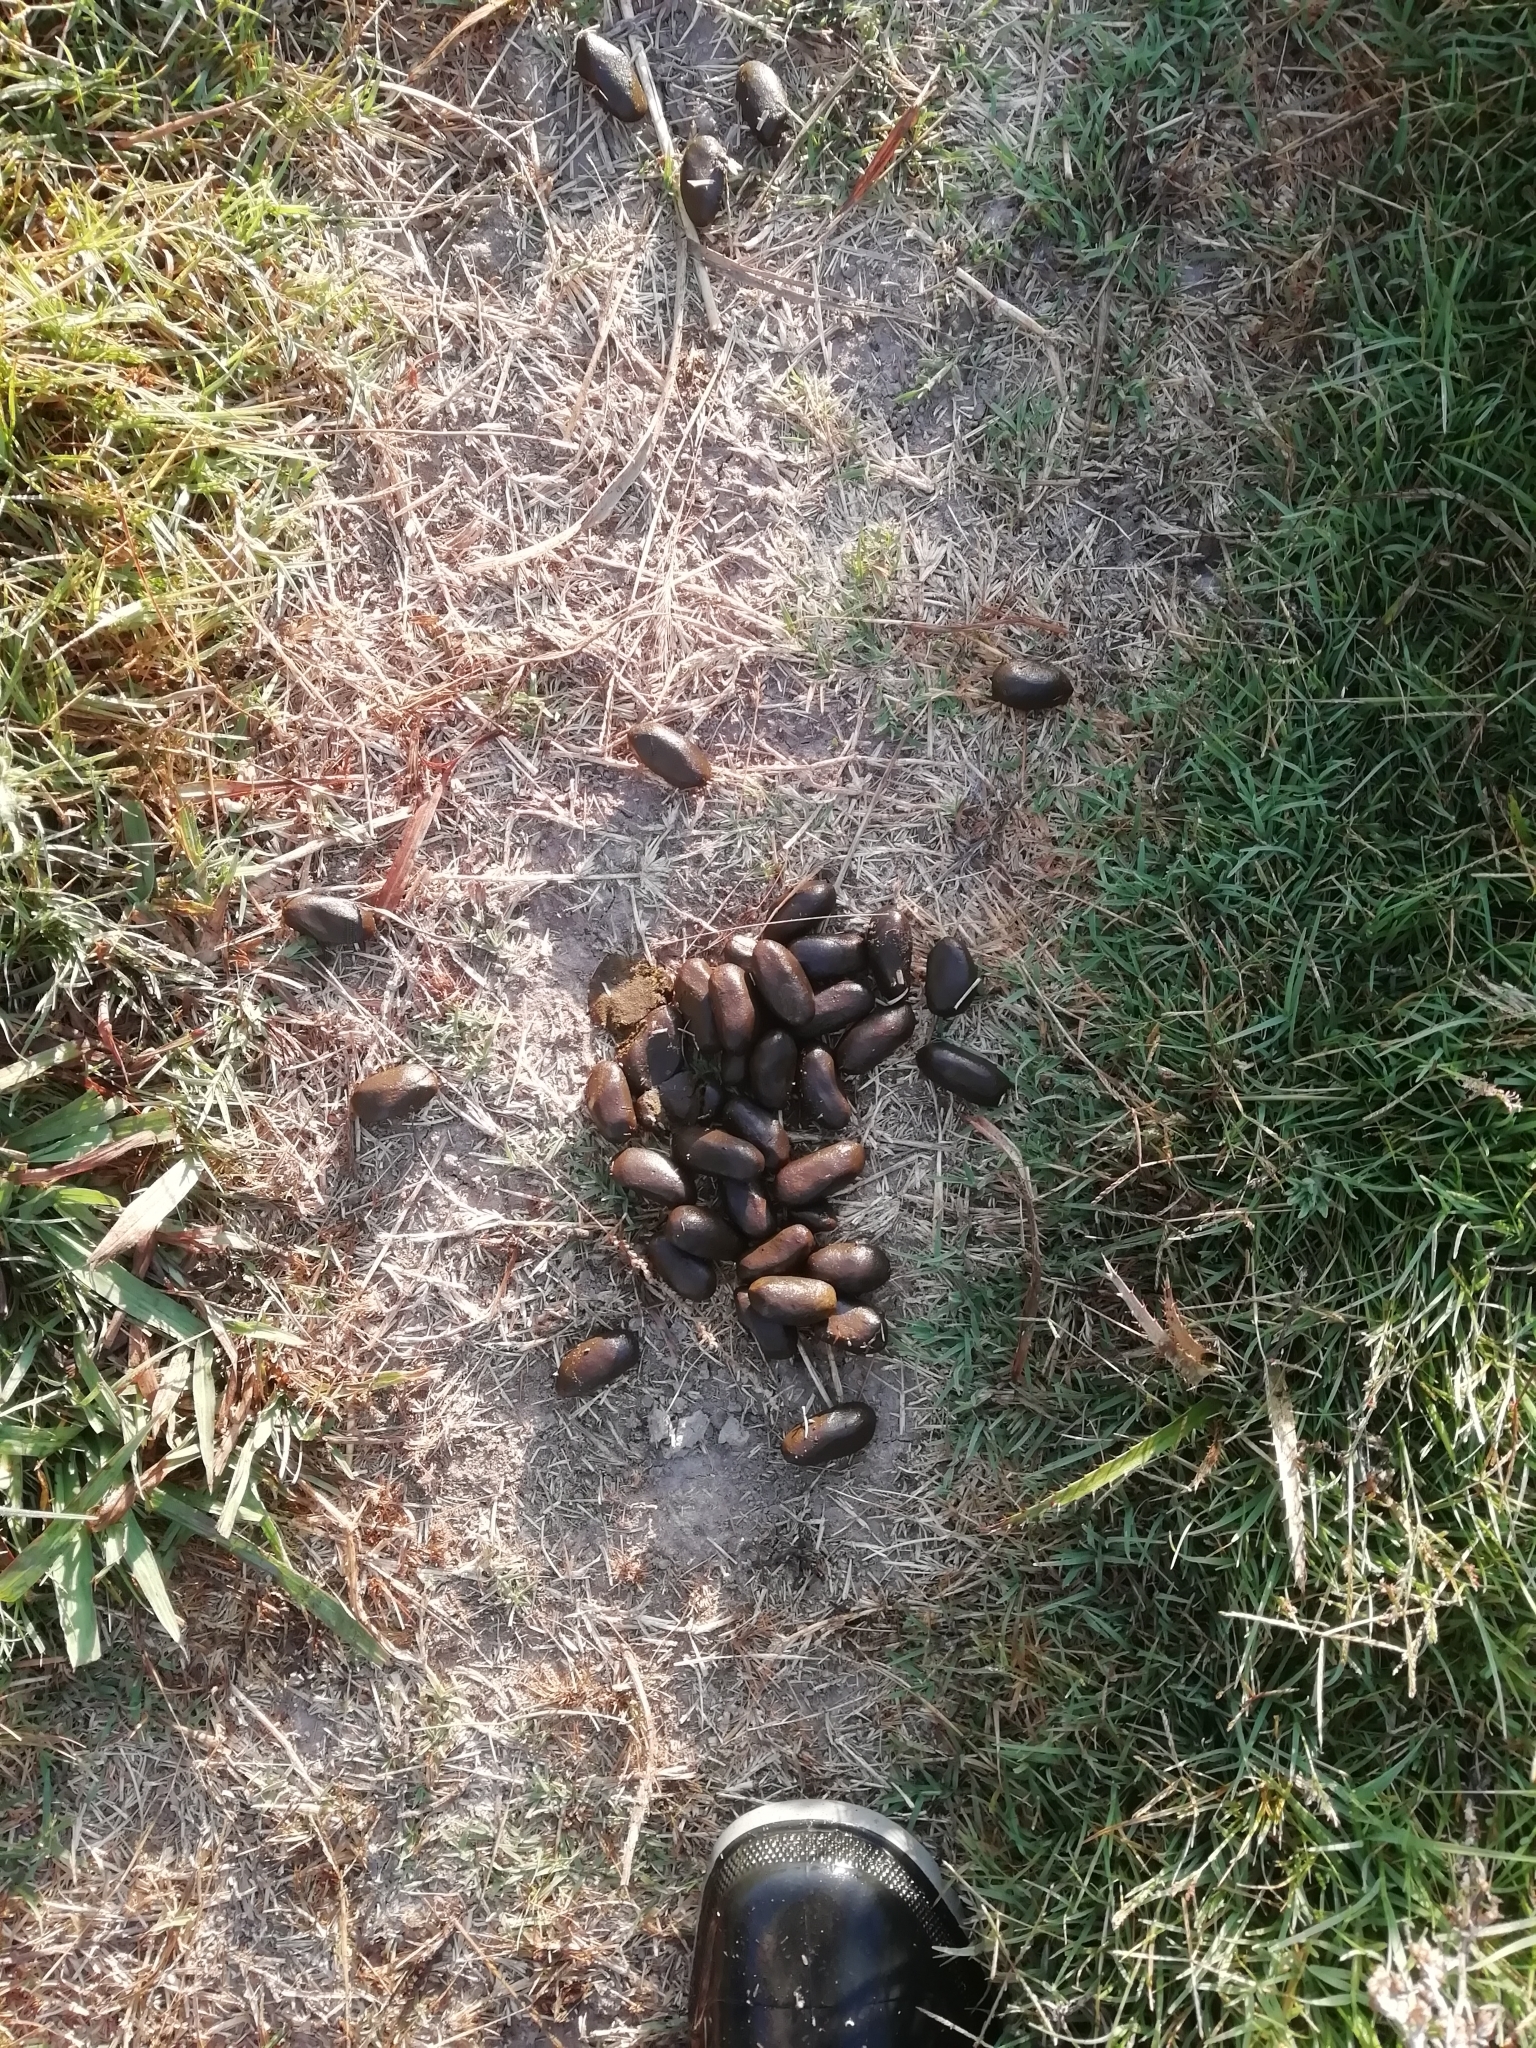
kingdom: Animalia
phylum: Chordata
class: Mammalia
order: Rodentia
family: Caviidae
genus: Hydrochoerus
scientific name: Hydrochoerus hydrochaeris
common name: Capybara
